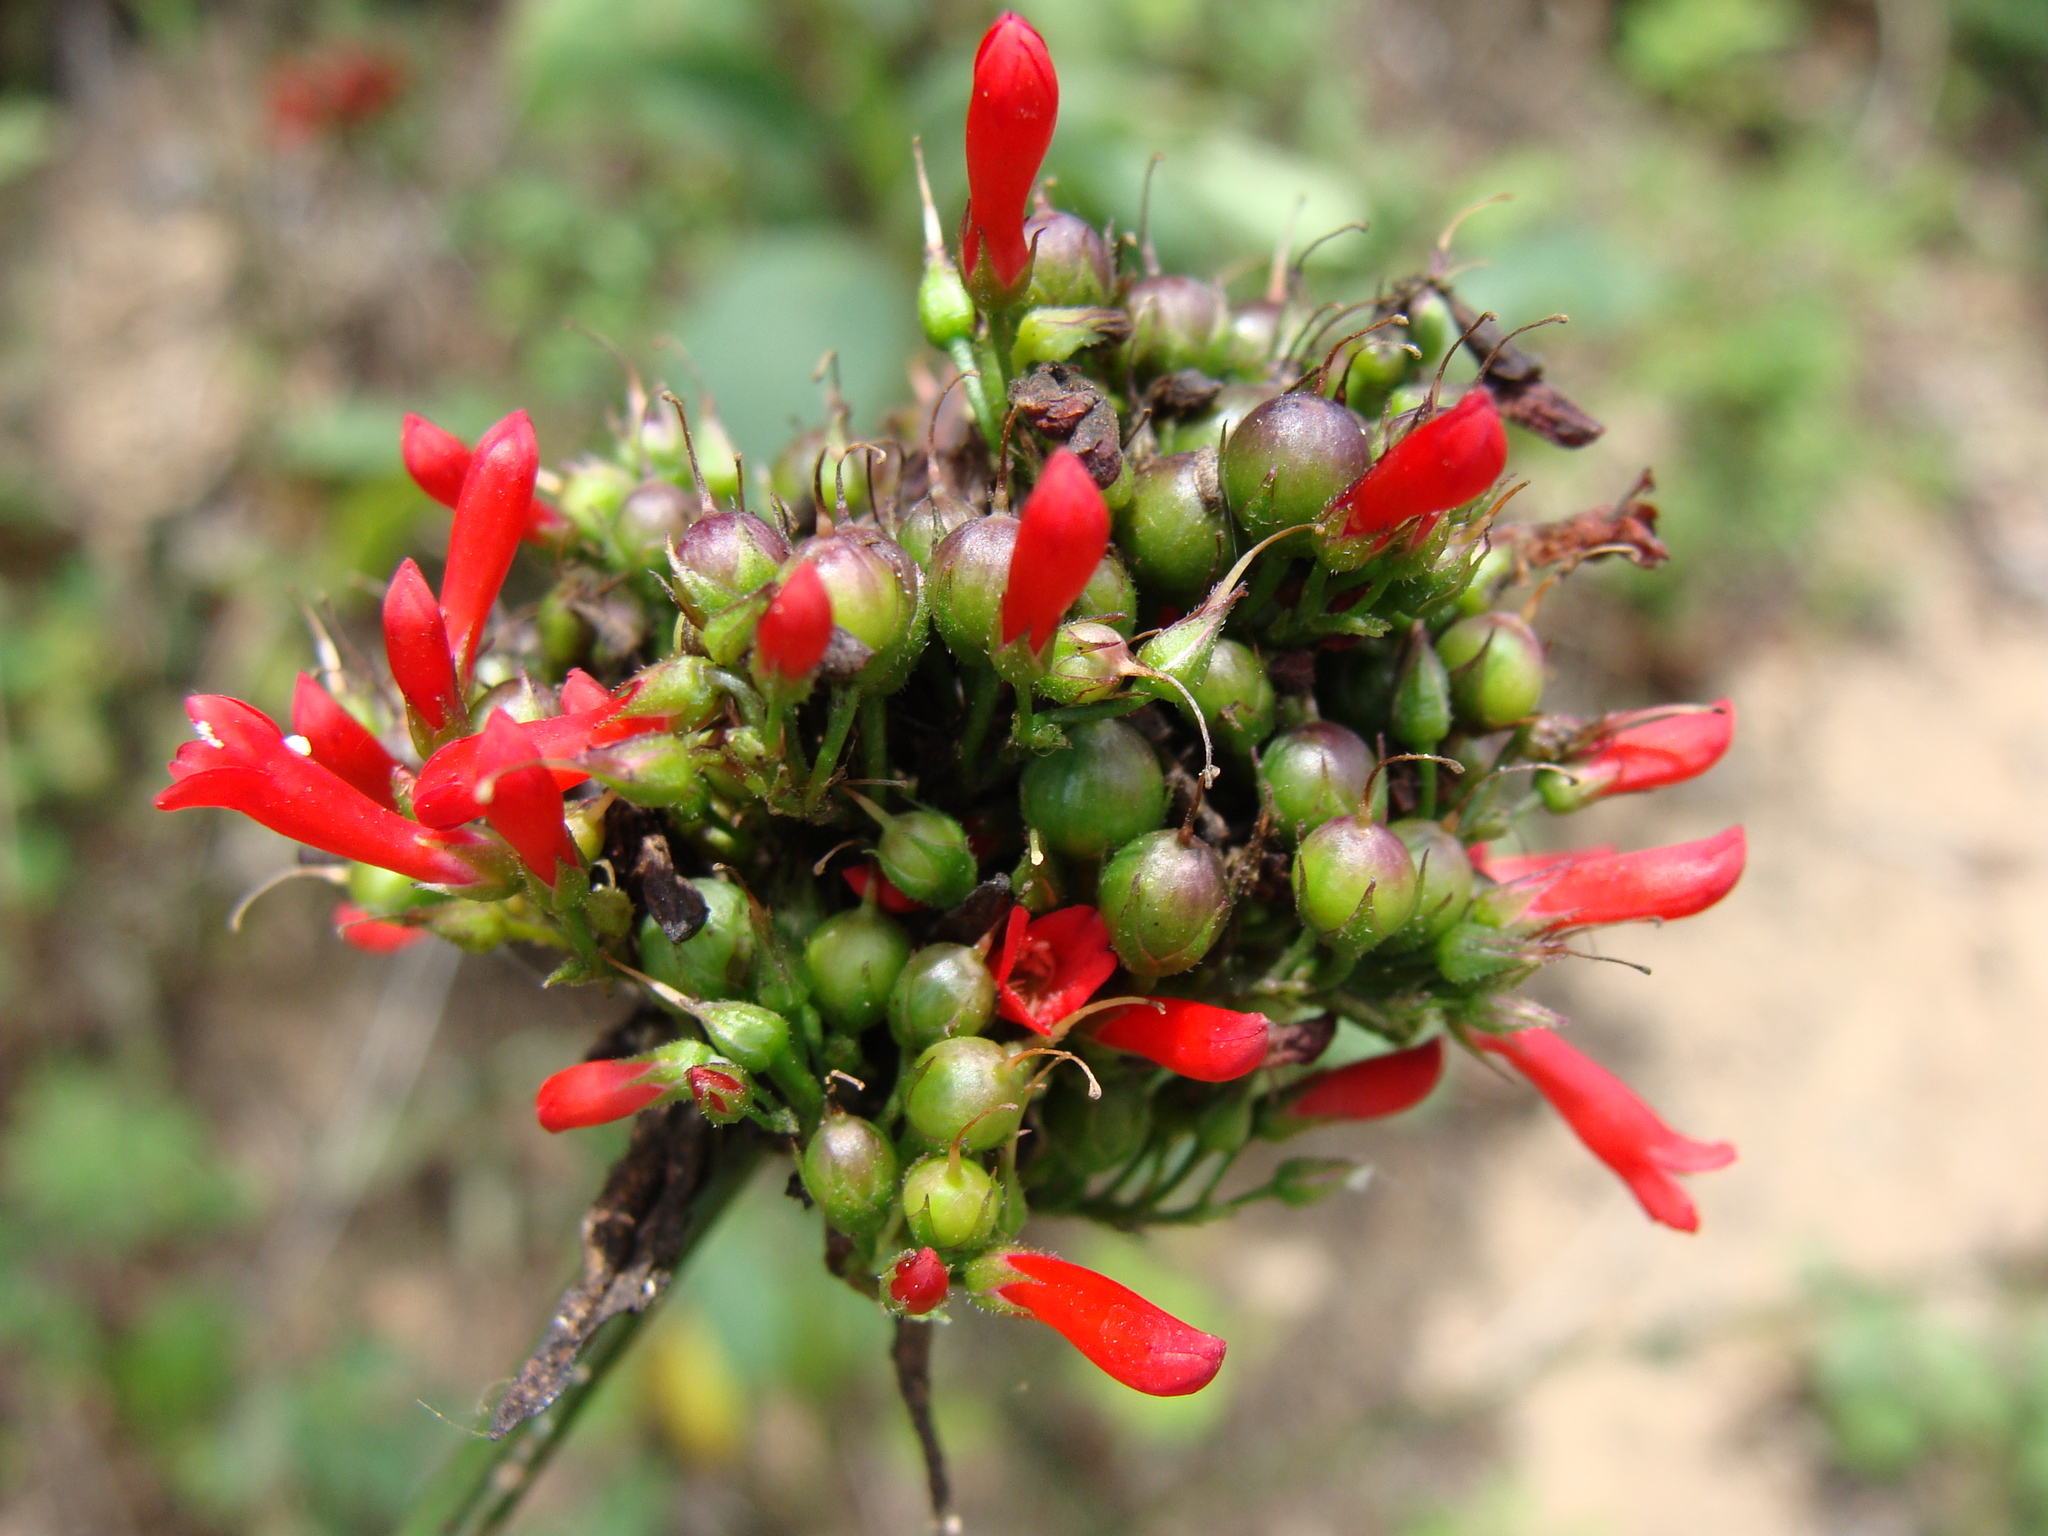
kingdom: Plantae
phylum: Tracheophyta
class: Magnoliopsida
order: Lamiales
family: Plantaginaceae
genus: Russelia
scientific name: Russelia sarmentosa
